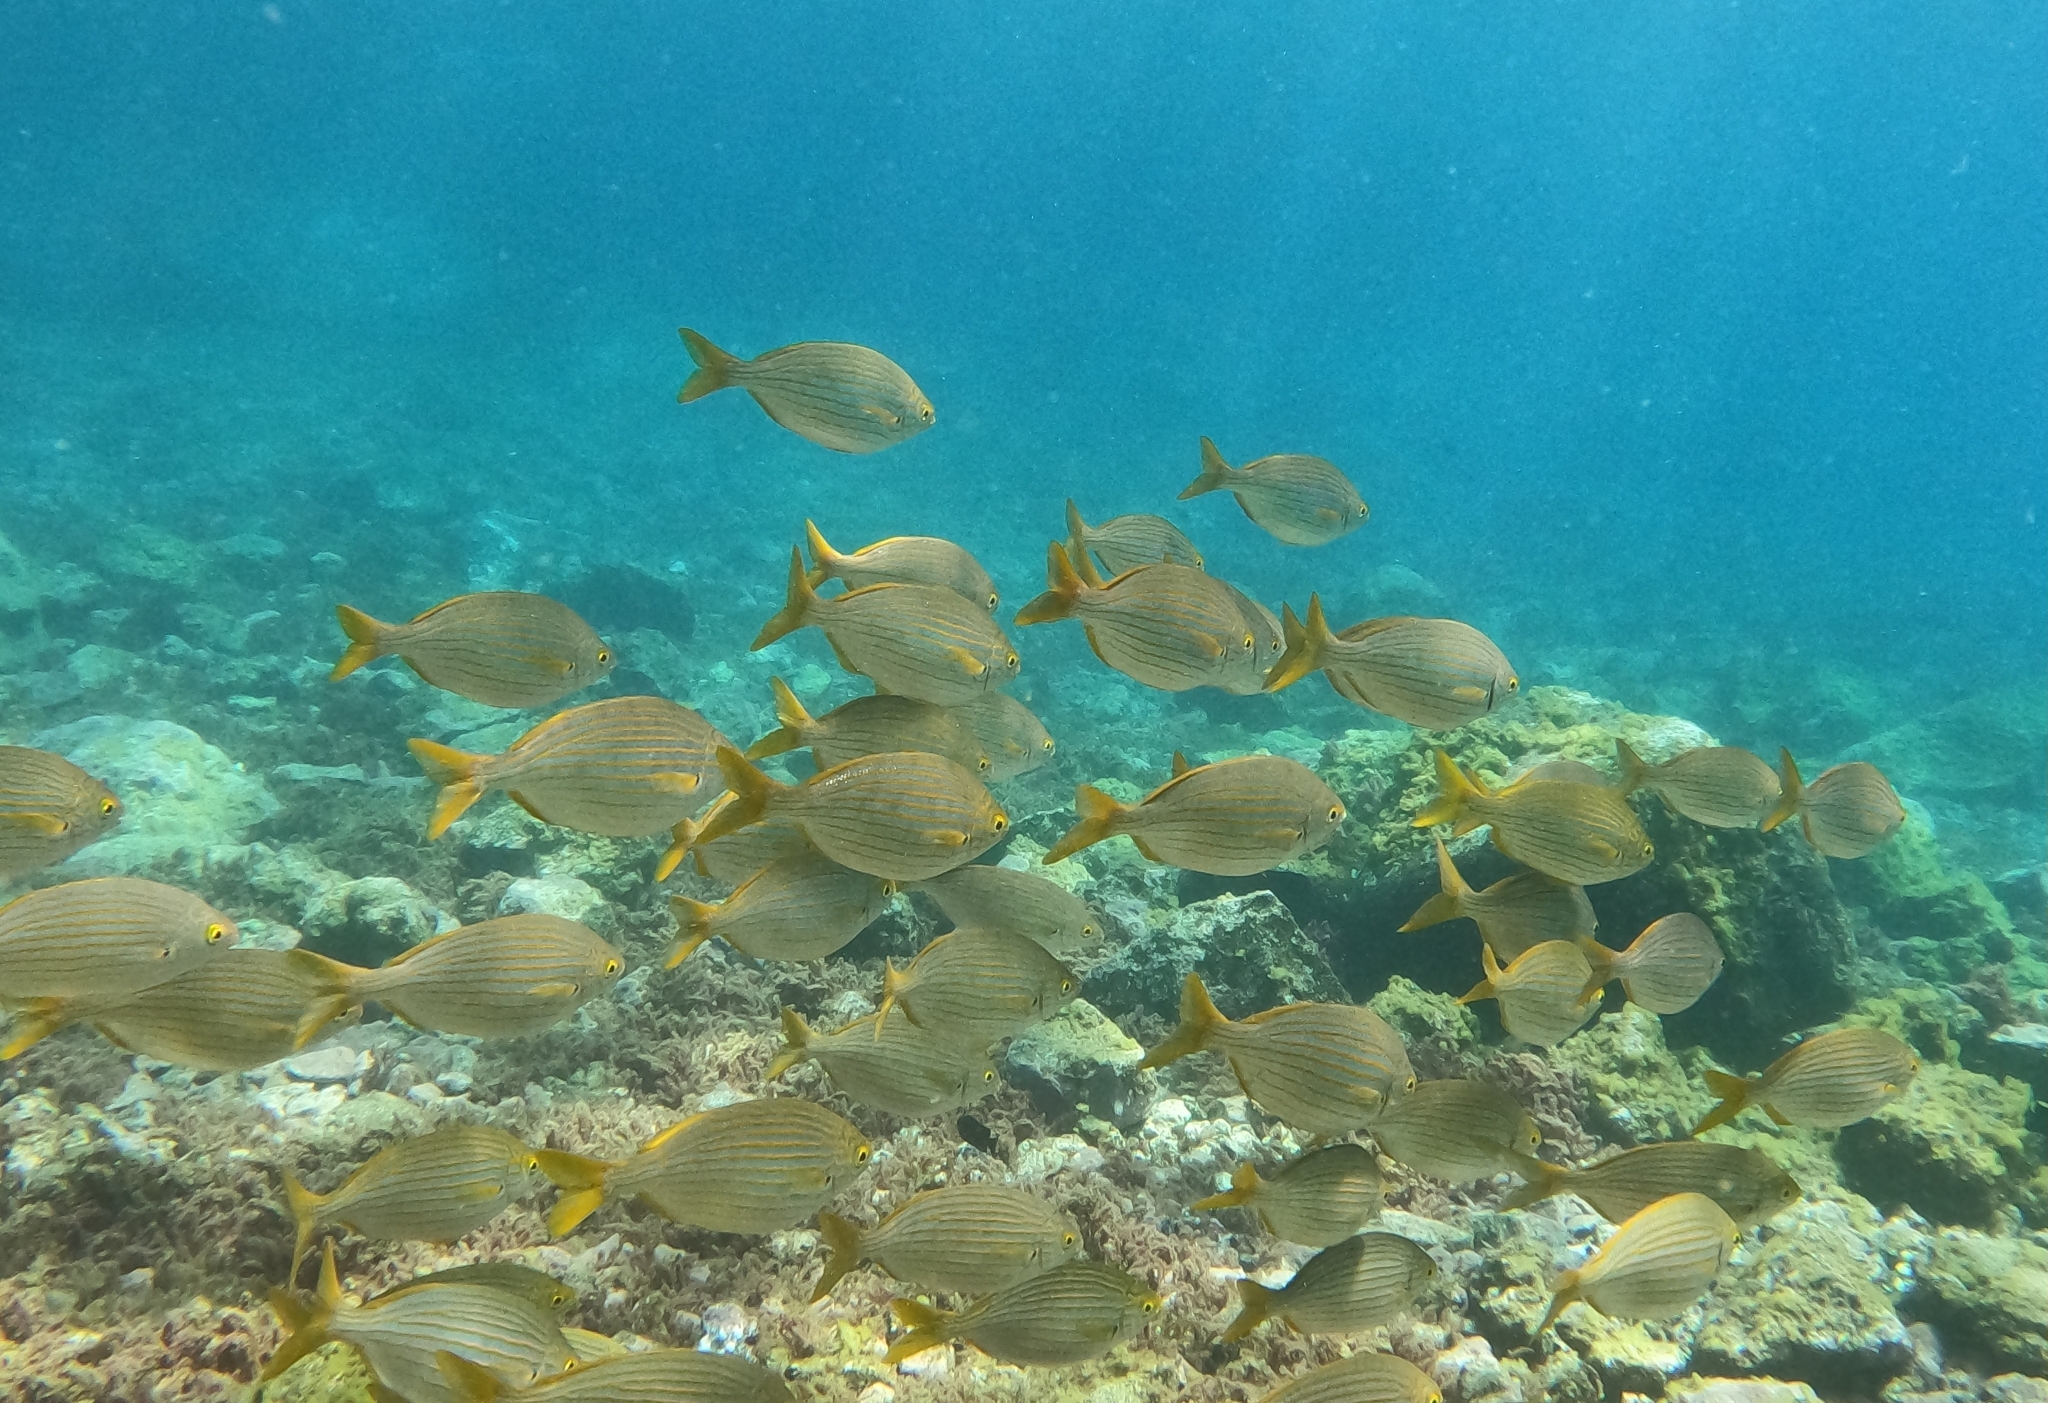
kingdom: Animalia
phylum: Chordata
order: Perciformes
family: Sparidae
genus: Sarpa
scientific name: Sarpa salpa
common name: Salema
